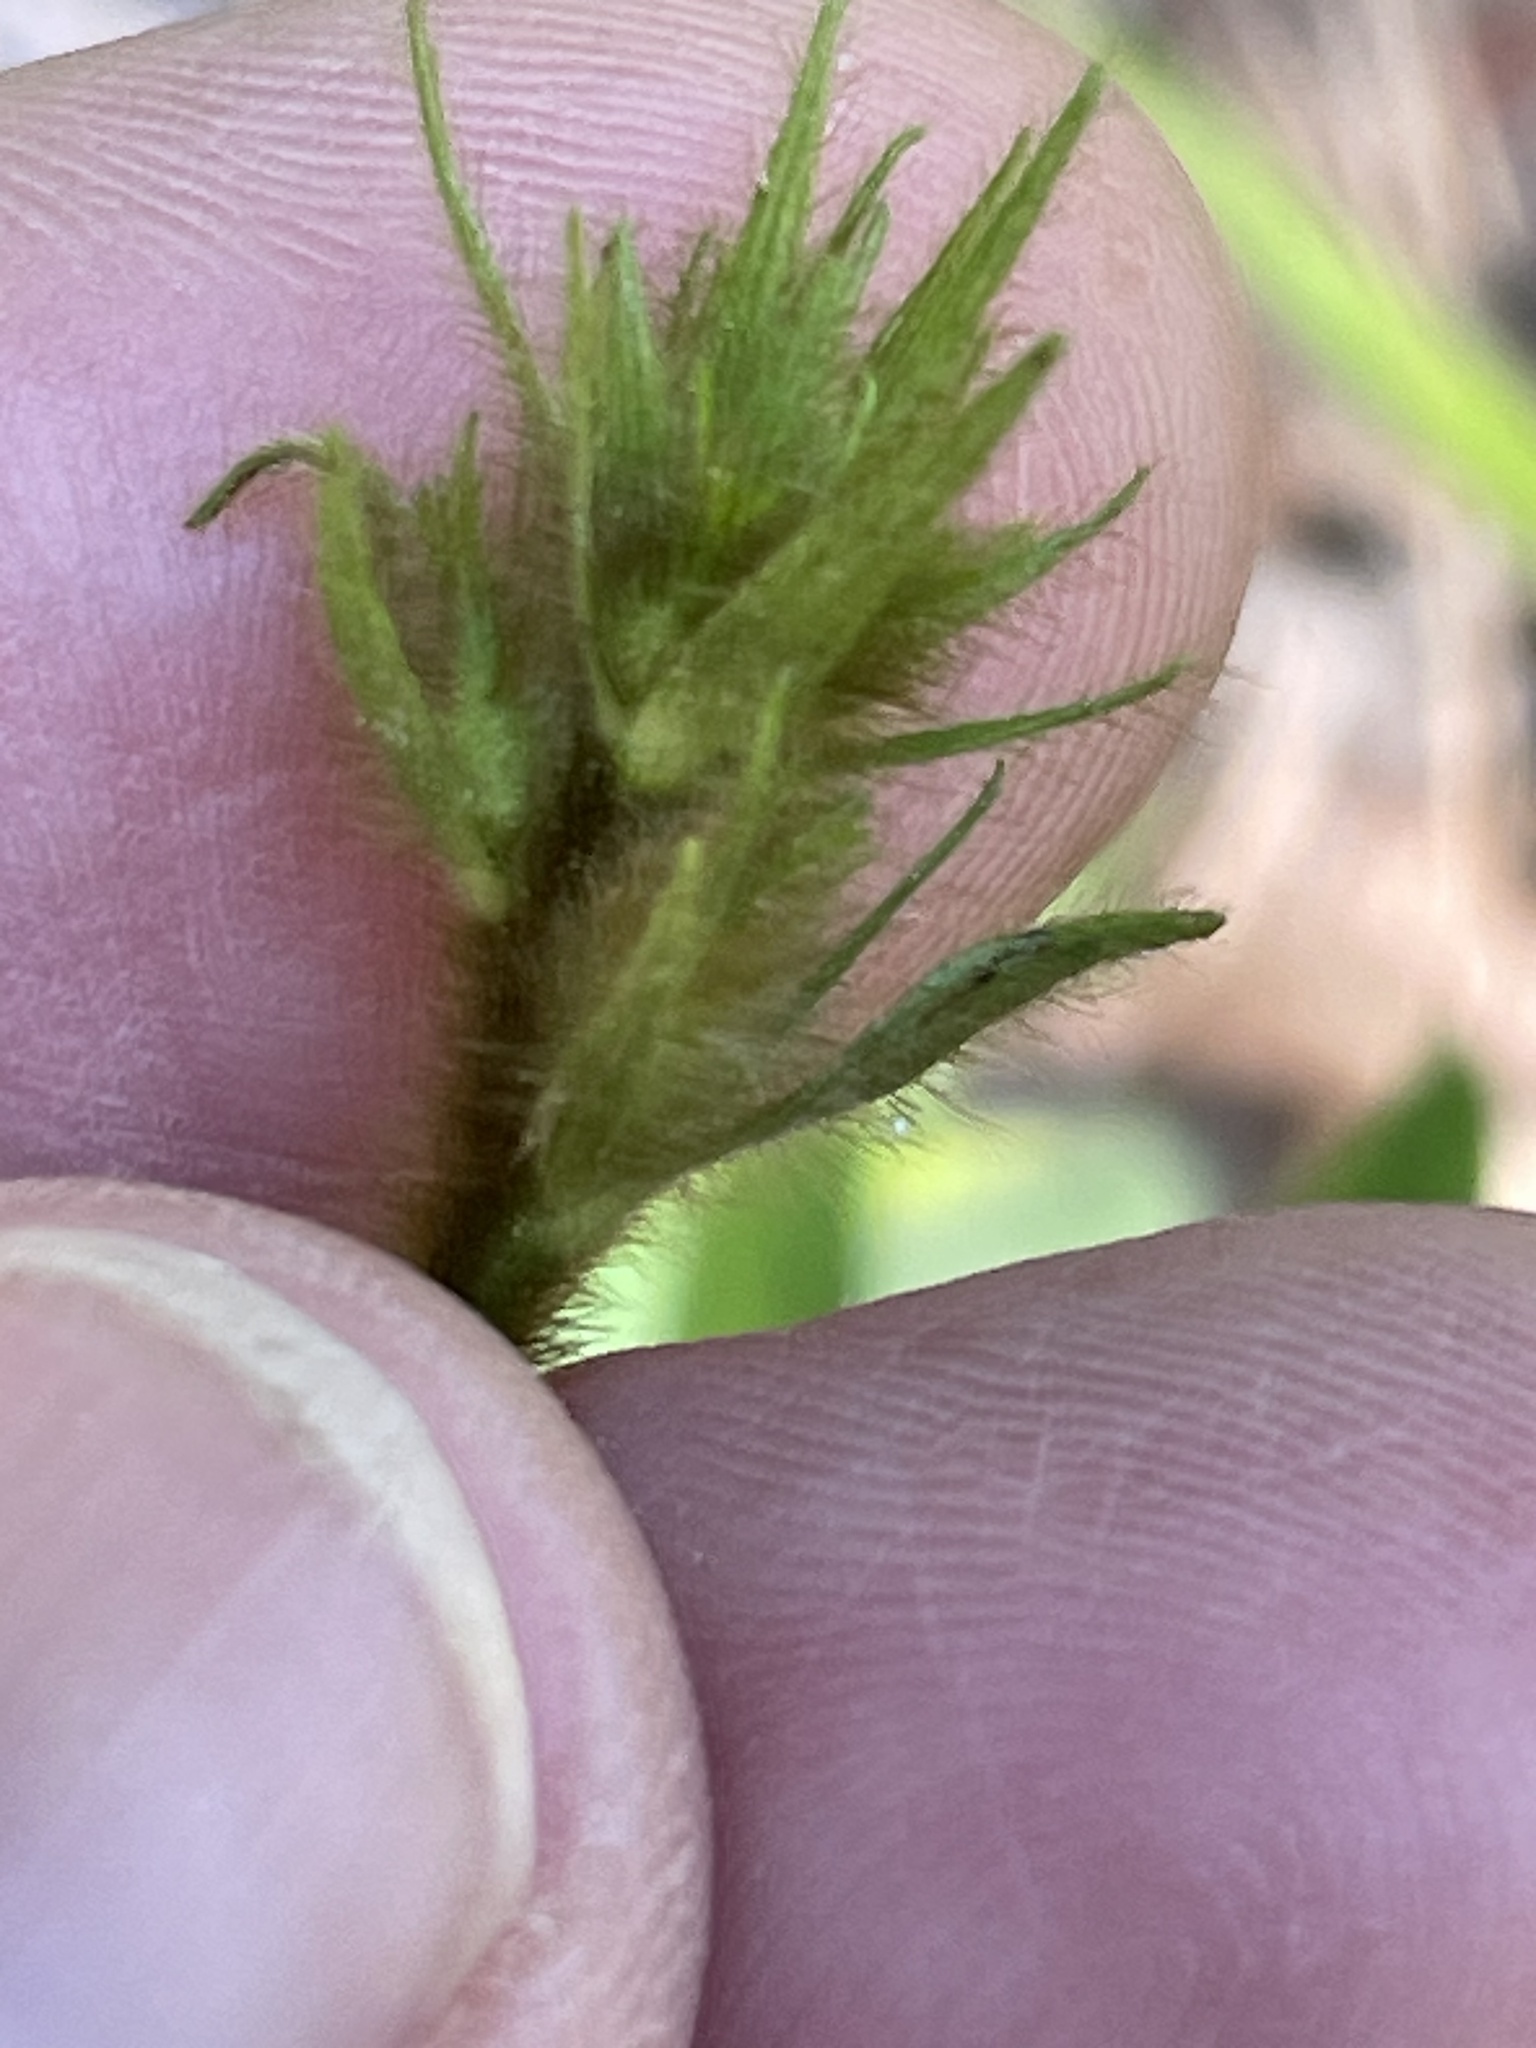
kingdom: Plantae
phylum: Tracheophyta
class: Magnoliopsida
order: Fabales
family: Fabaceae
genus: Tephrosia
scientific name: Tephrosia spicata
